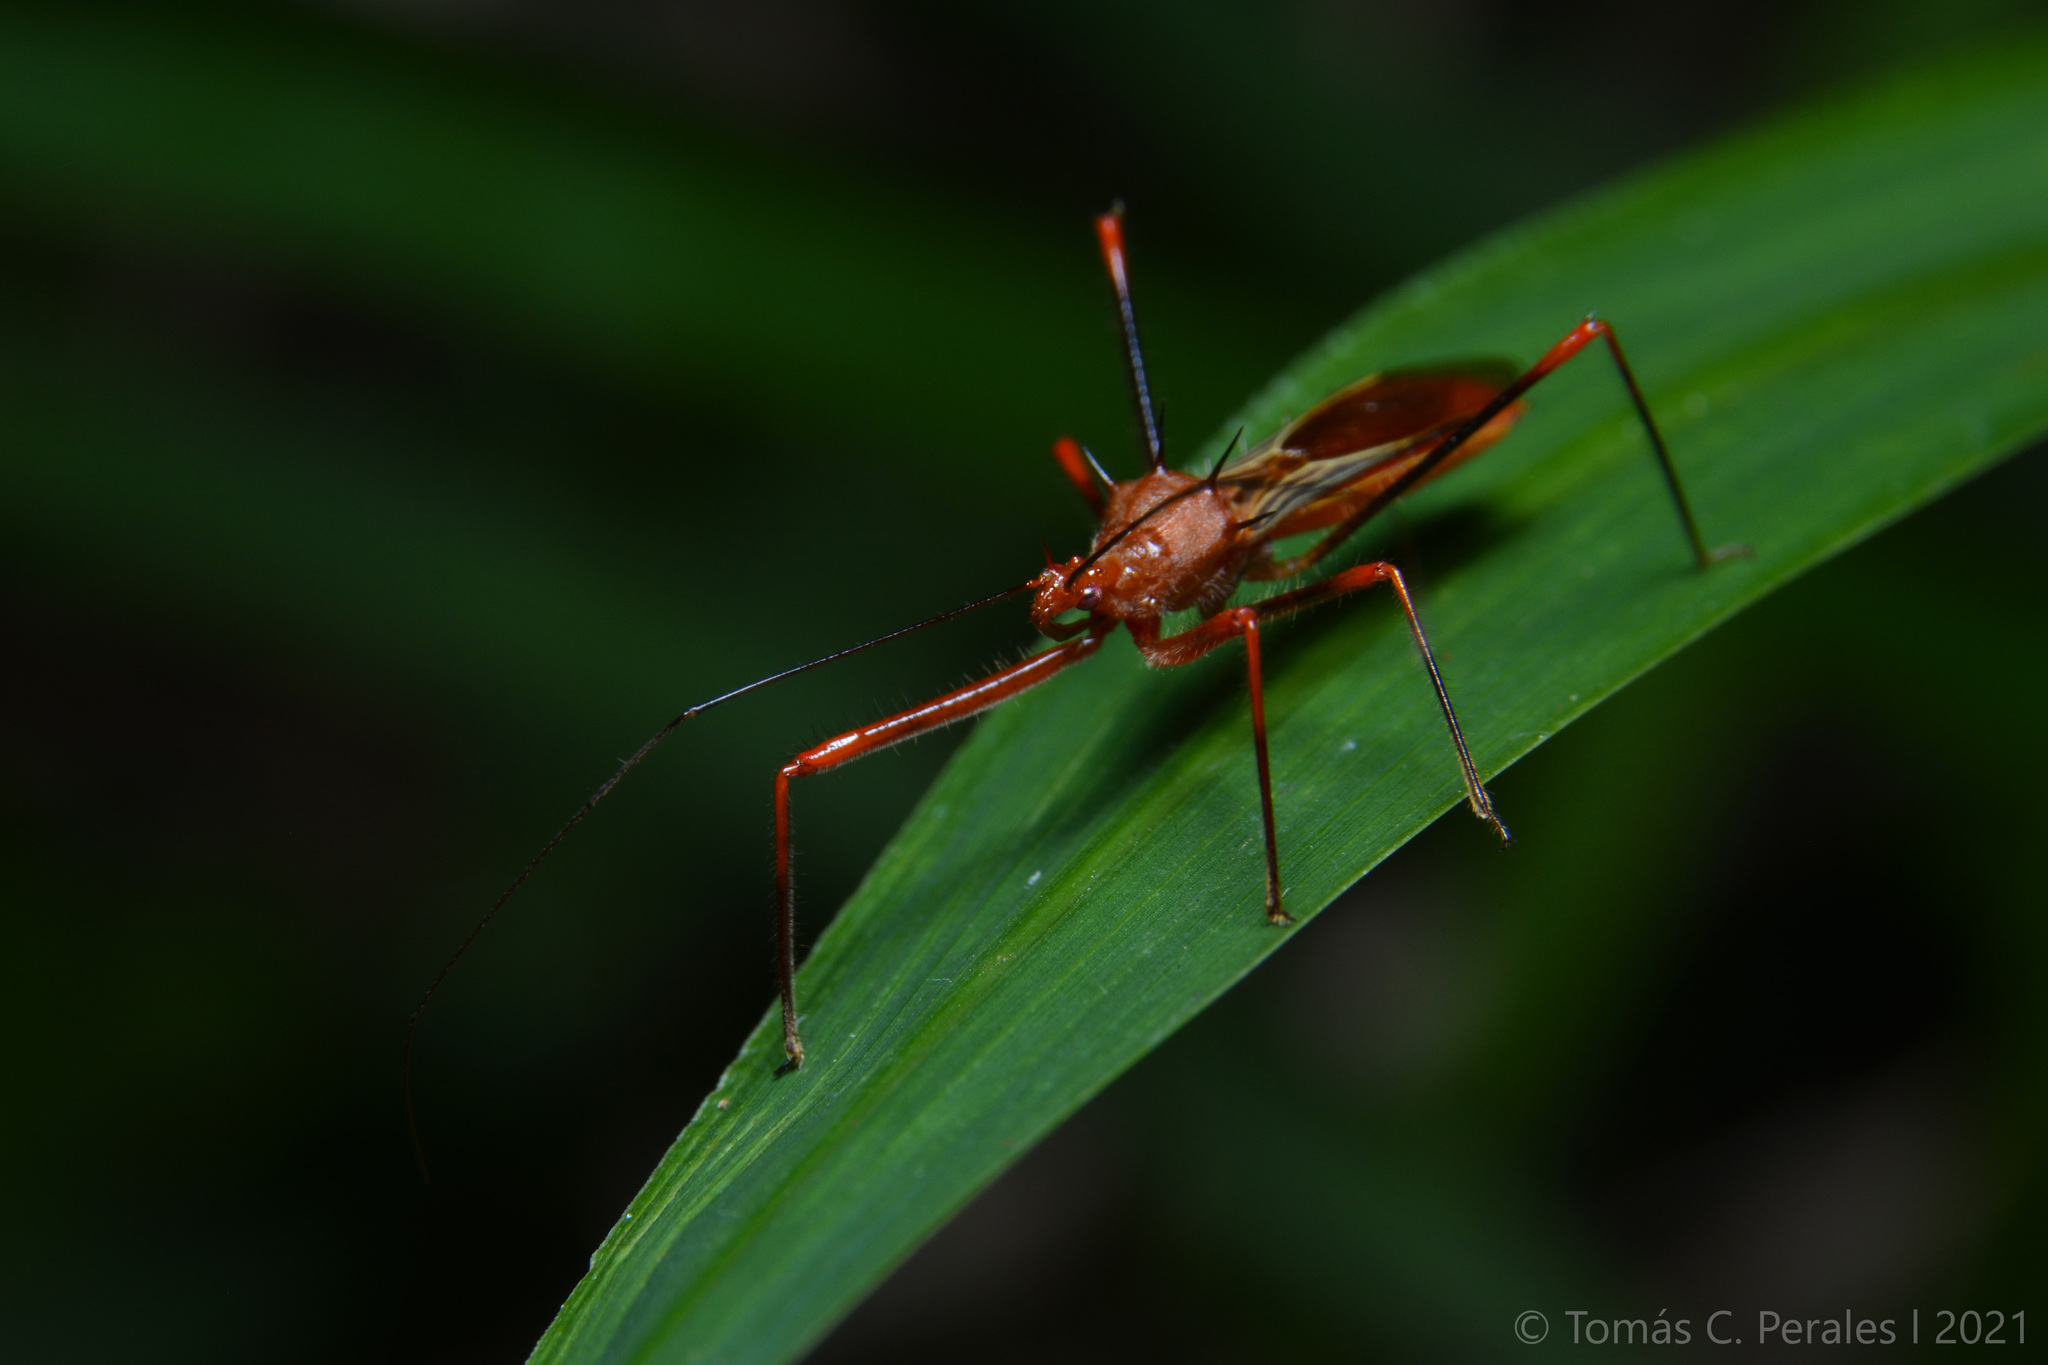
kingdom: Animalia
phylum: Arthropoda
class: Insecta
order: Hemiptera
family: Reduviidae
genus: Ricolla
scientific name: Ricolla quadrispinosa
